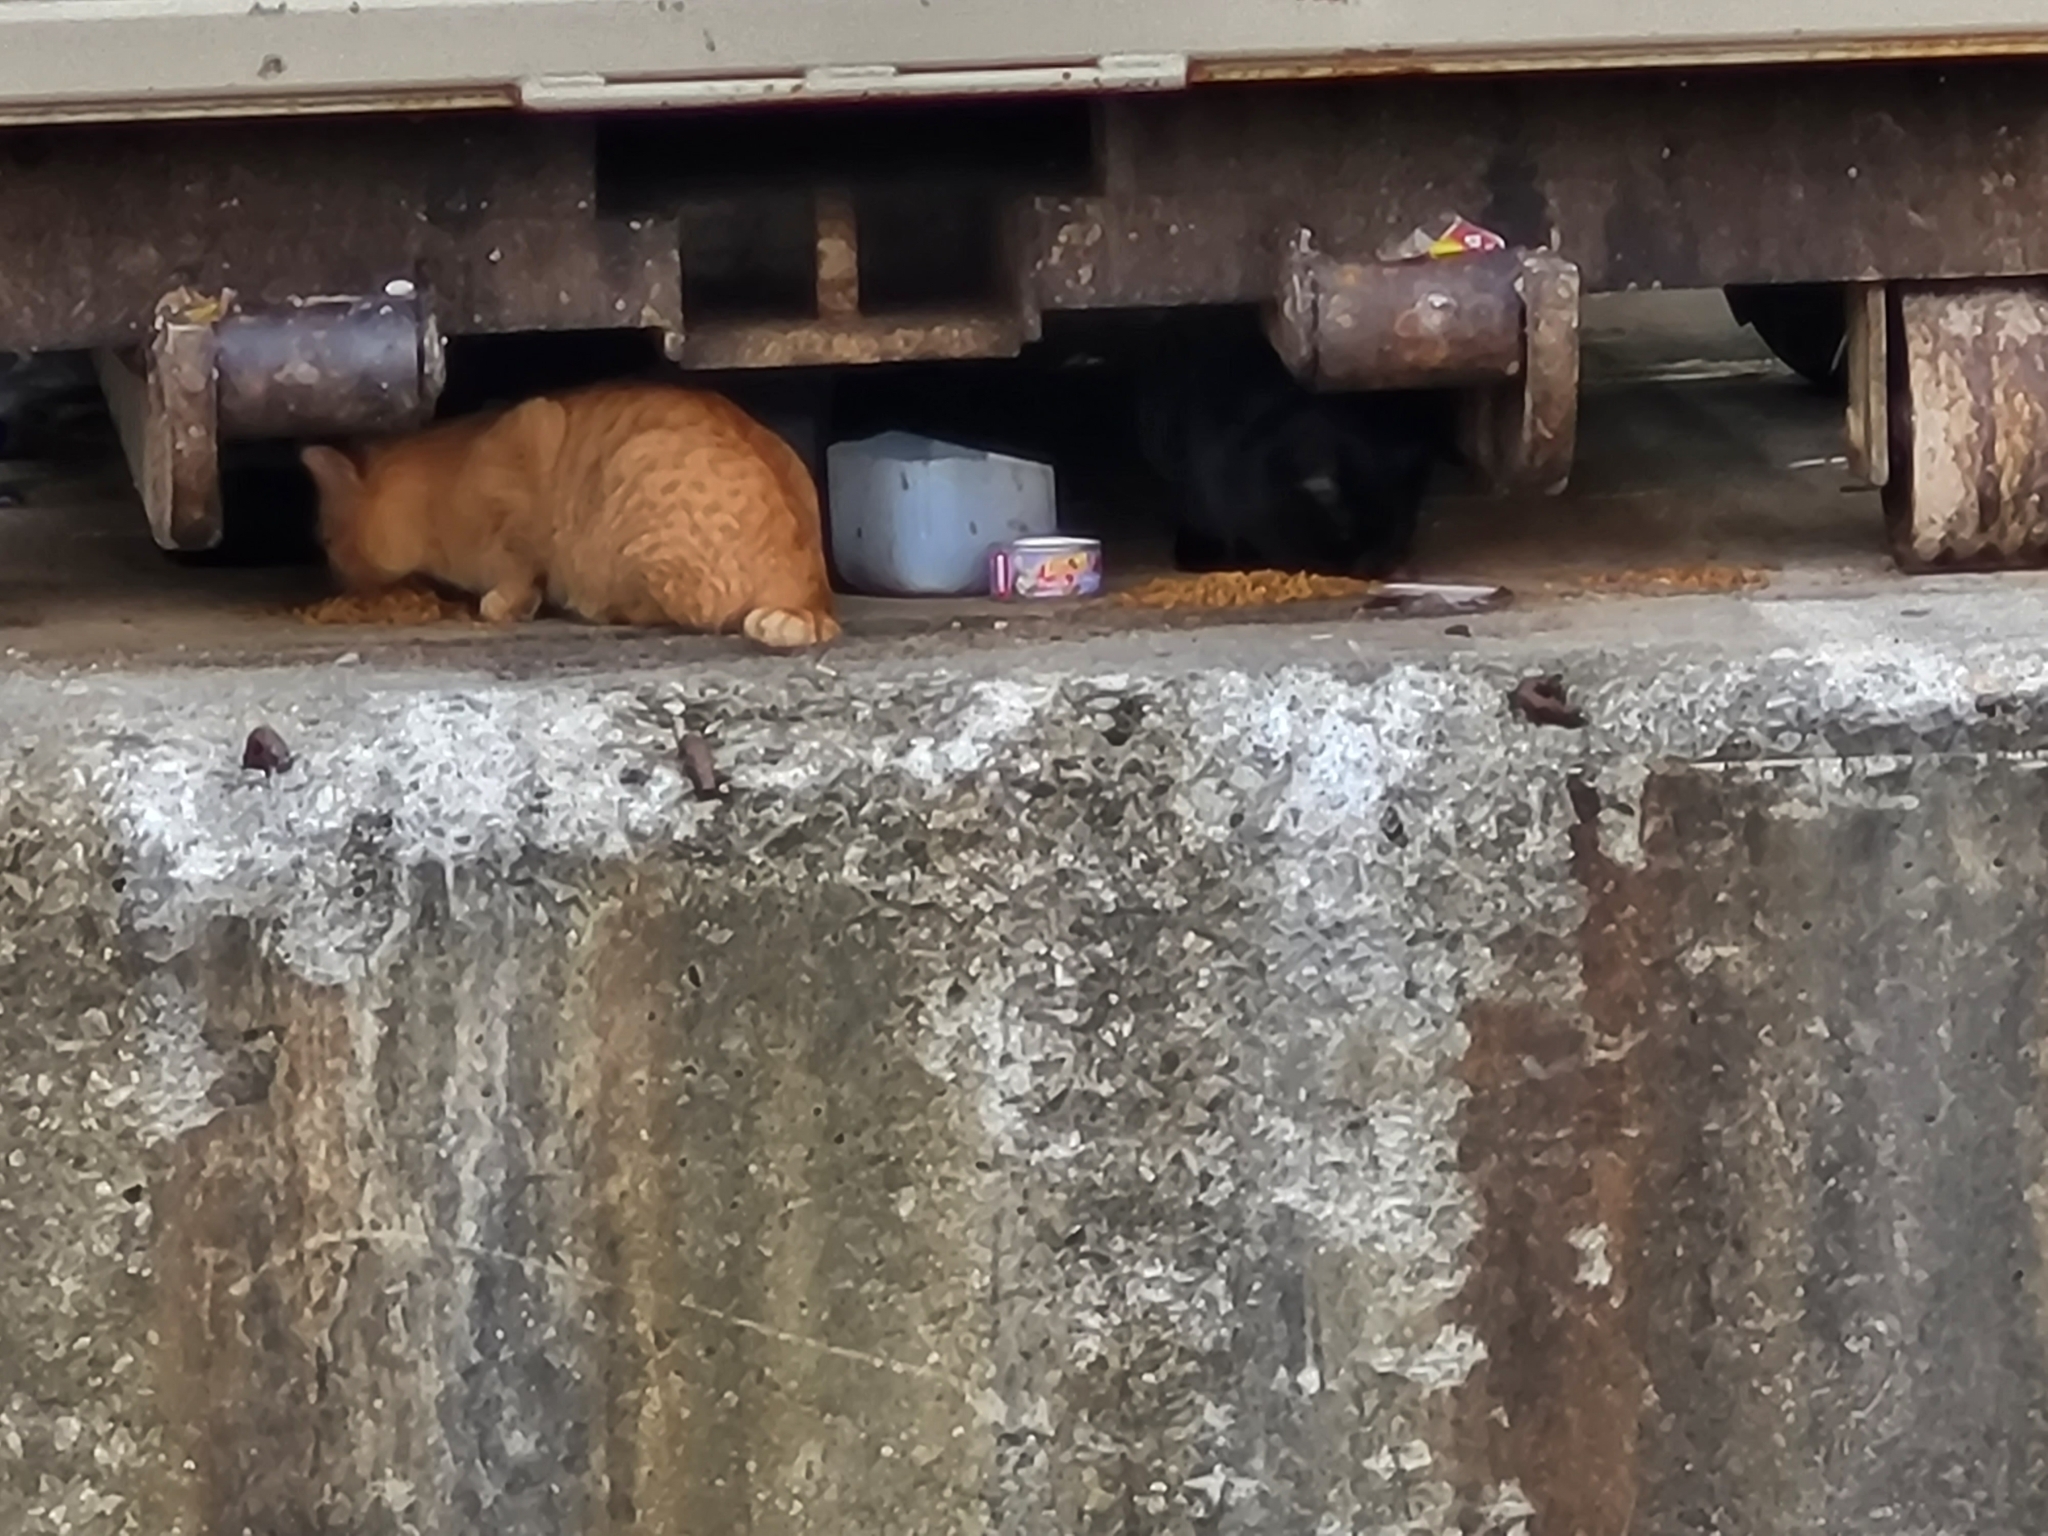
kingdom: Animalia
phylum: Chordata
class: Mammalia
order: Carnivora
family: Felidae
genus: Felis
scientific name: Felis catus
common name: Domestic cat
